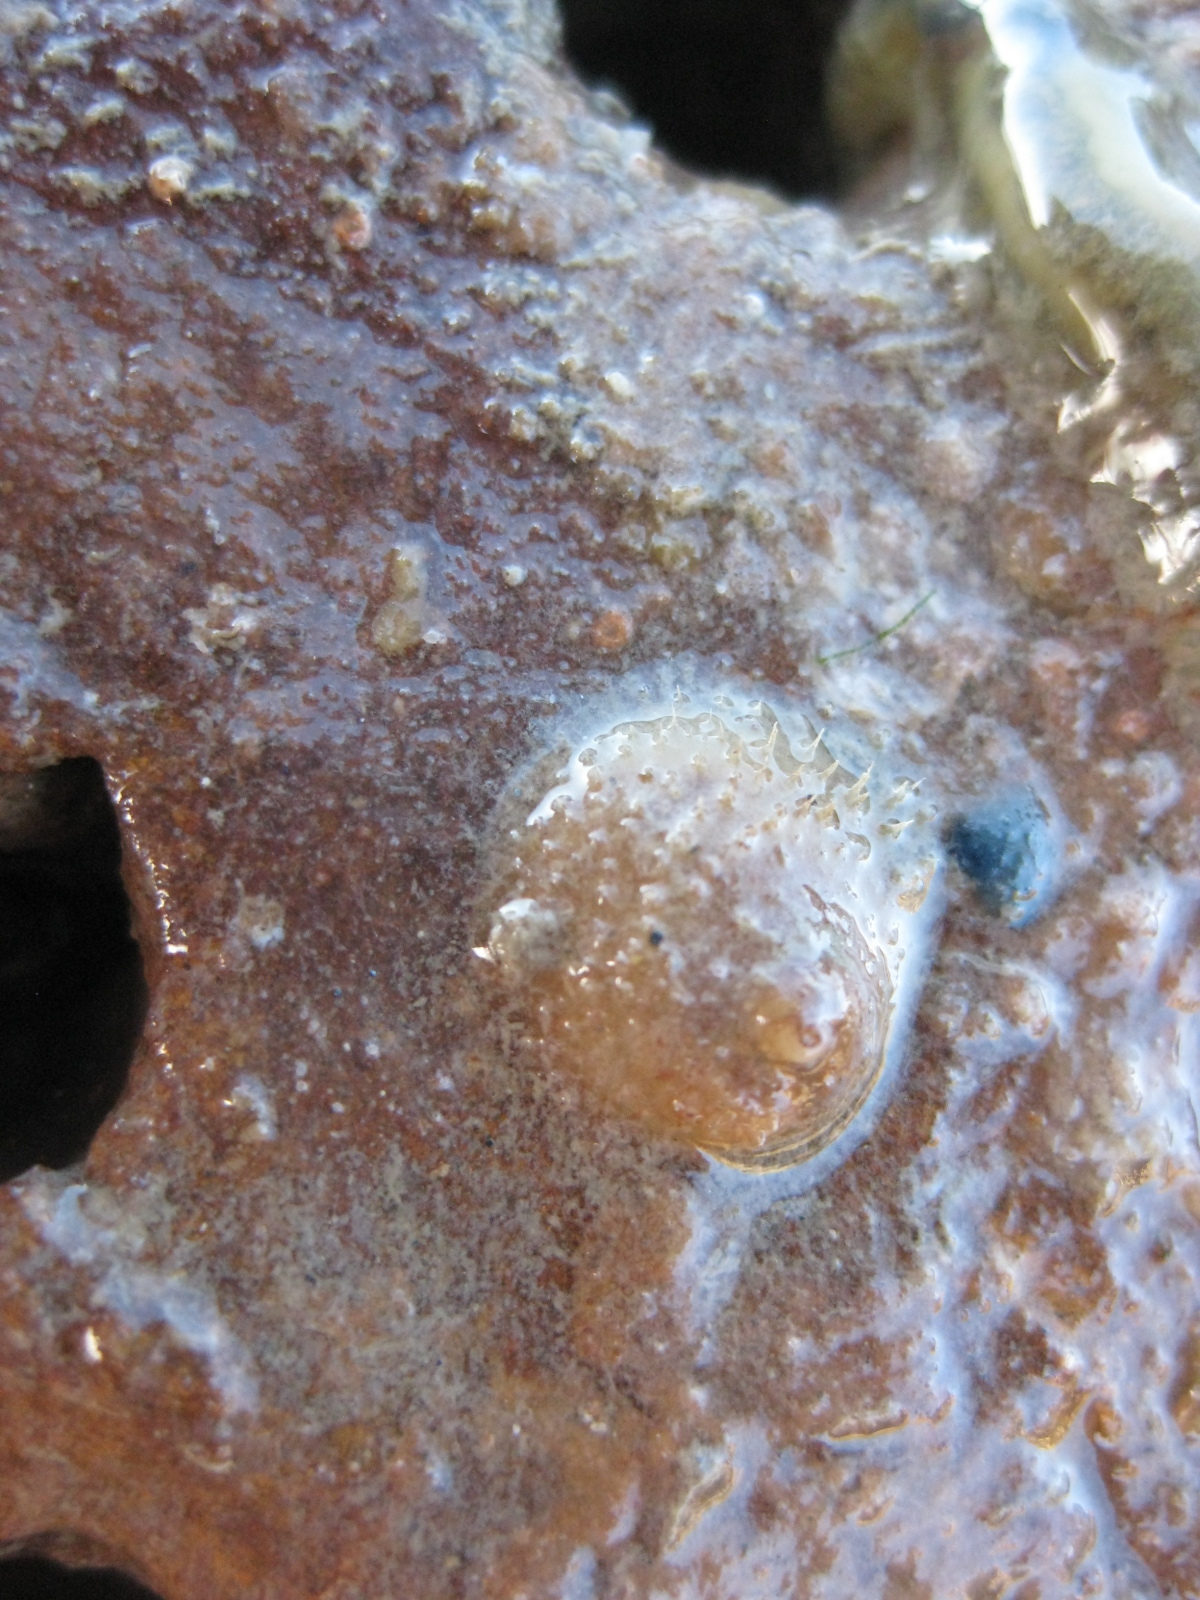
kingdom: Animalia
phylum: Mollusca
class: Gastropoda
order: Littorinimorpha
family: Calyptraeidae
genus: Sigapatella
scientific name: Sigapatella novaezelandiae
